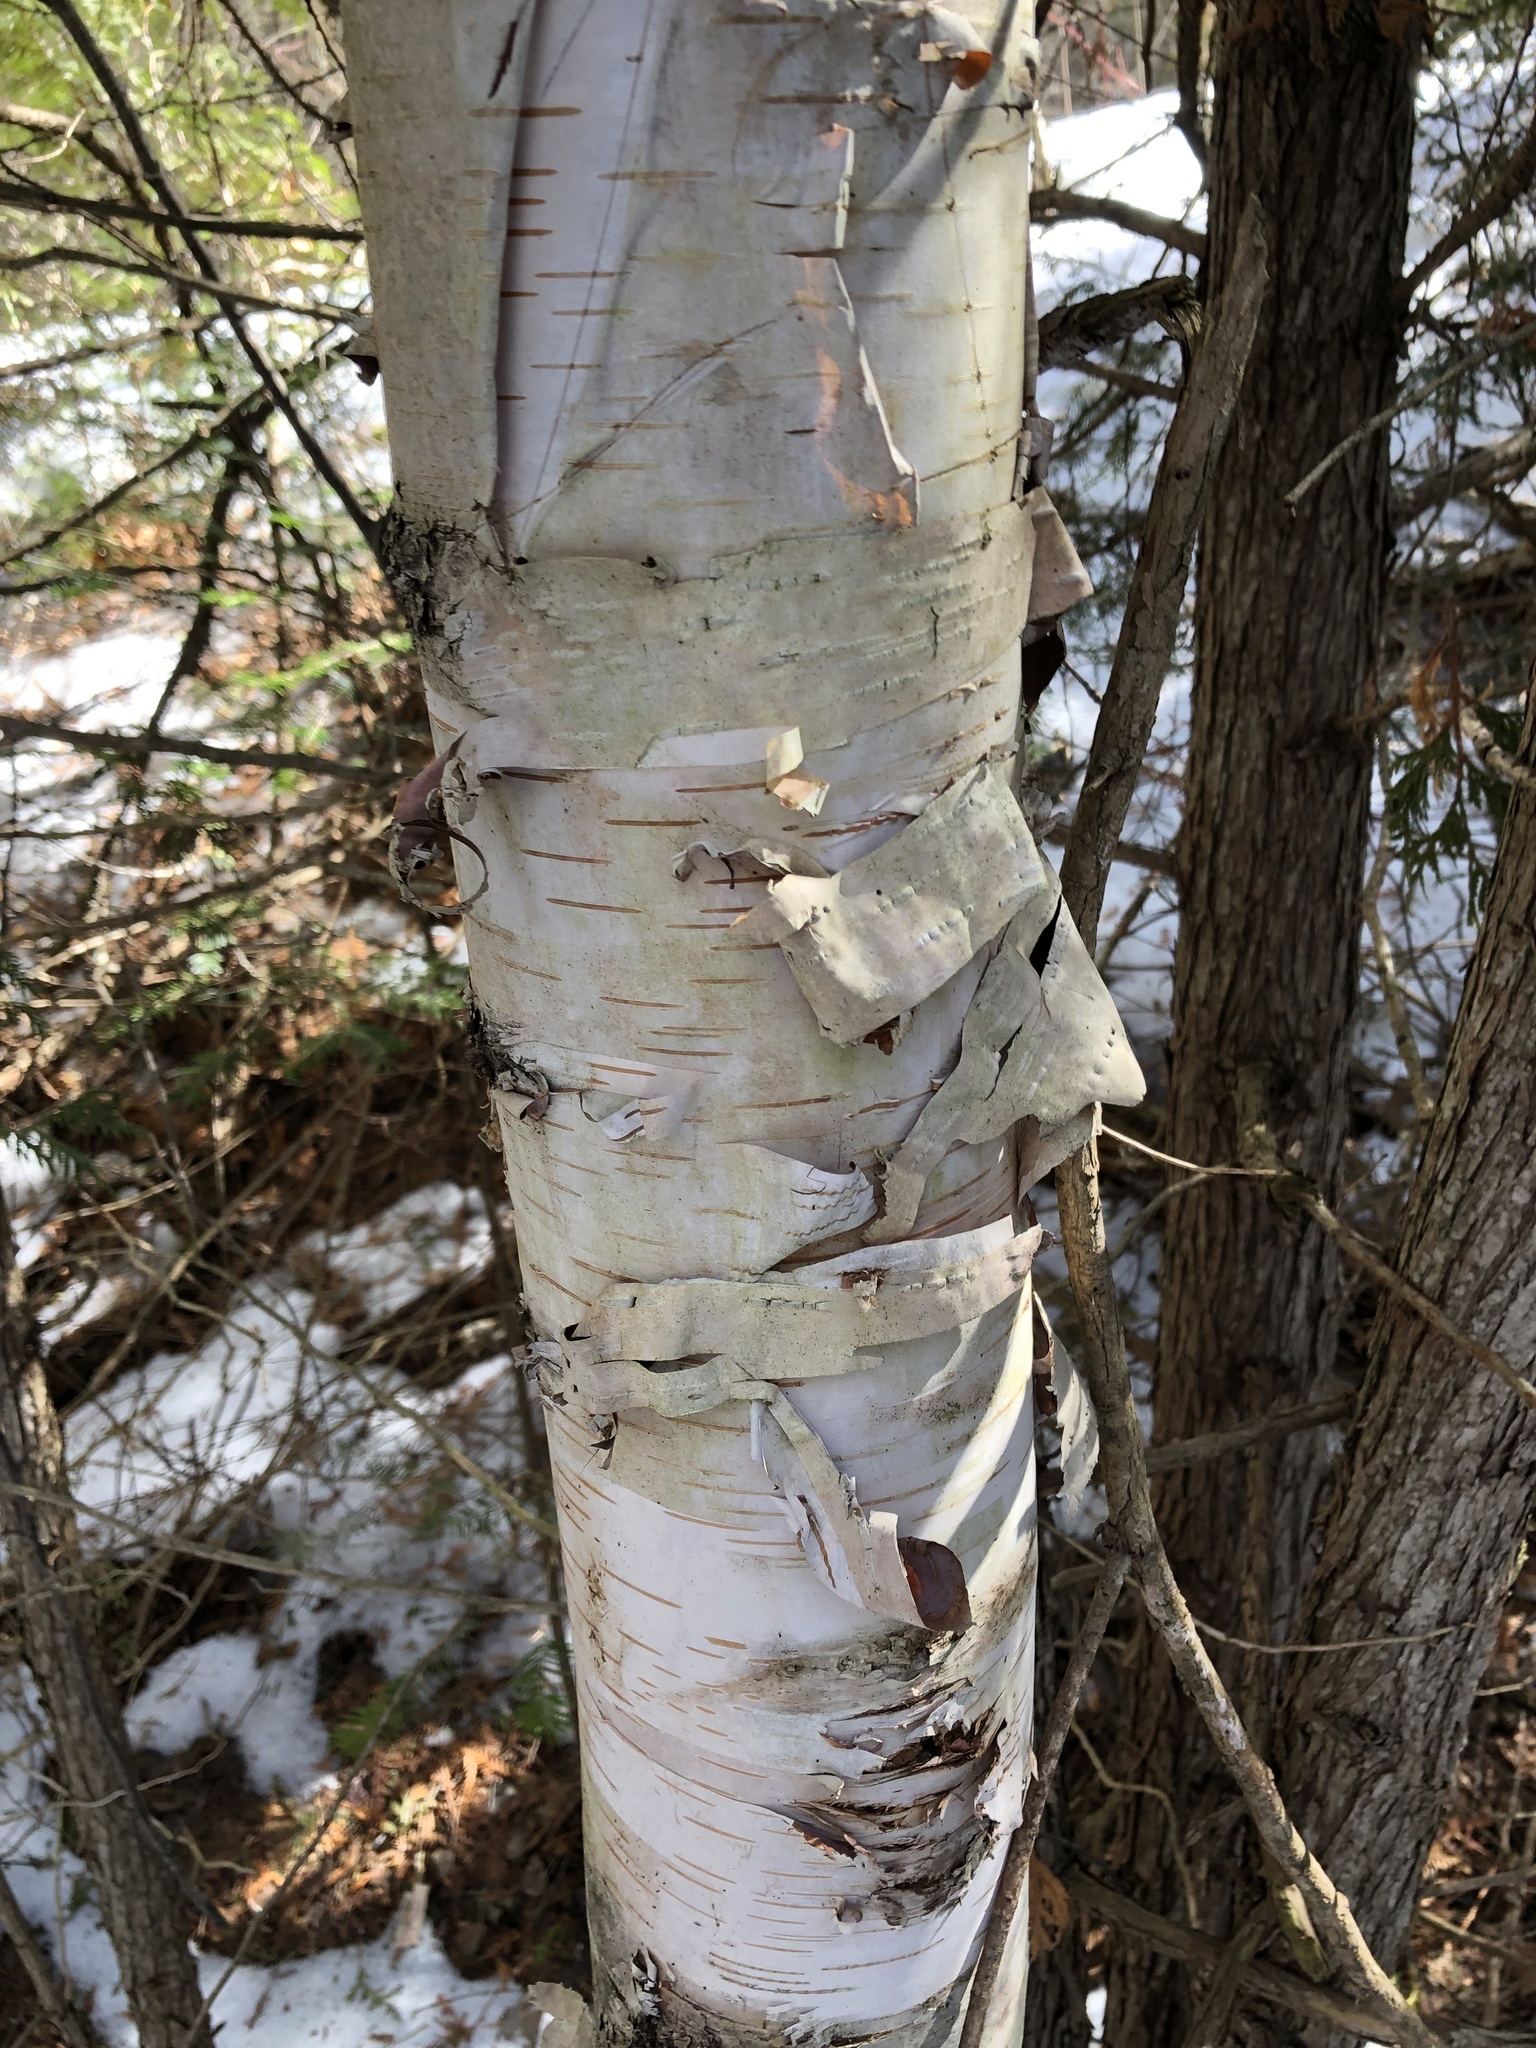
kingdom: Plantae
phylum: Tracheophyta
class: Magnoliopsida
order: Fagales
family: Betulaceae
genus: Betula
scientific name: Betula papyrifera
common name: Paper birch
